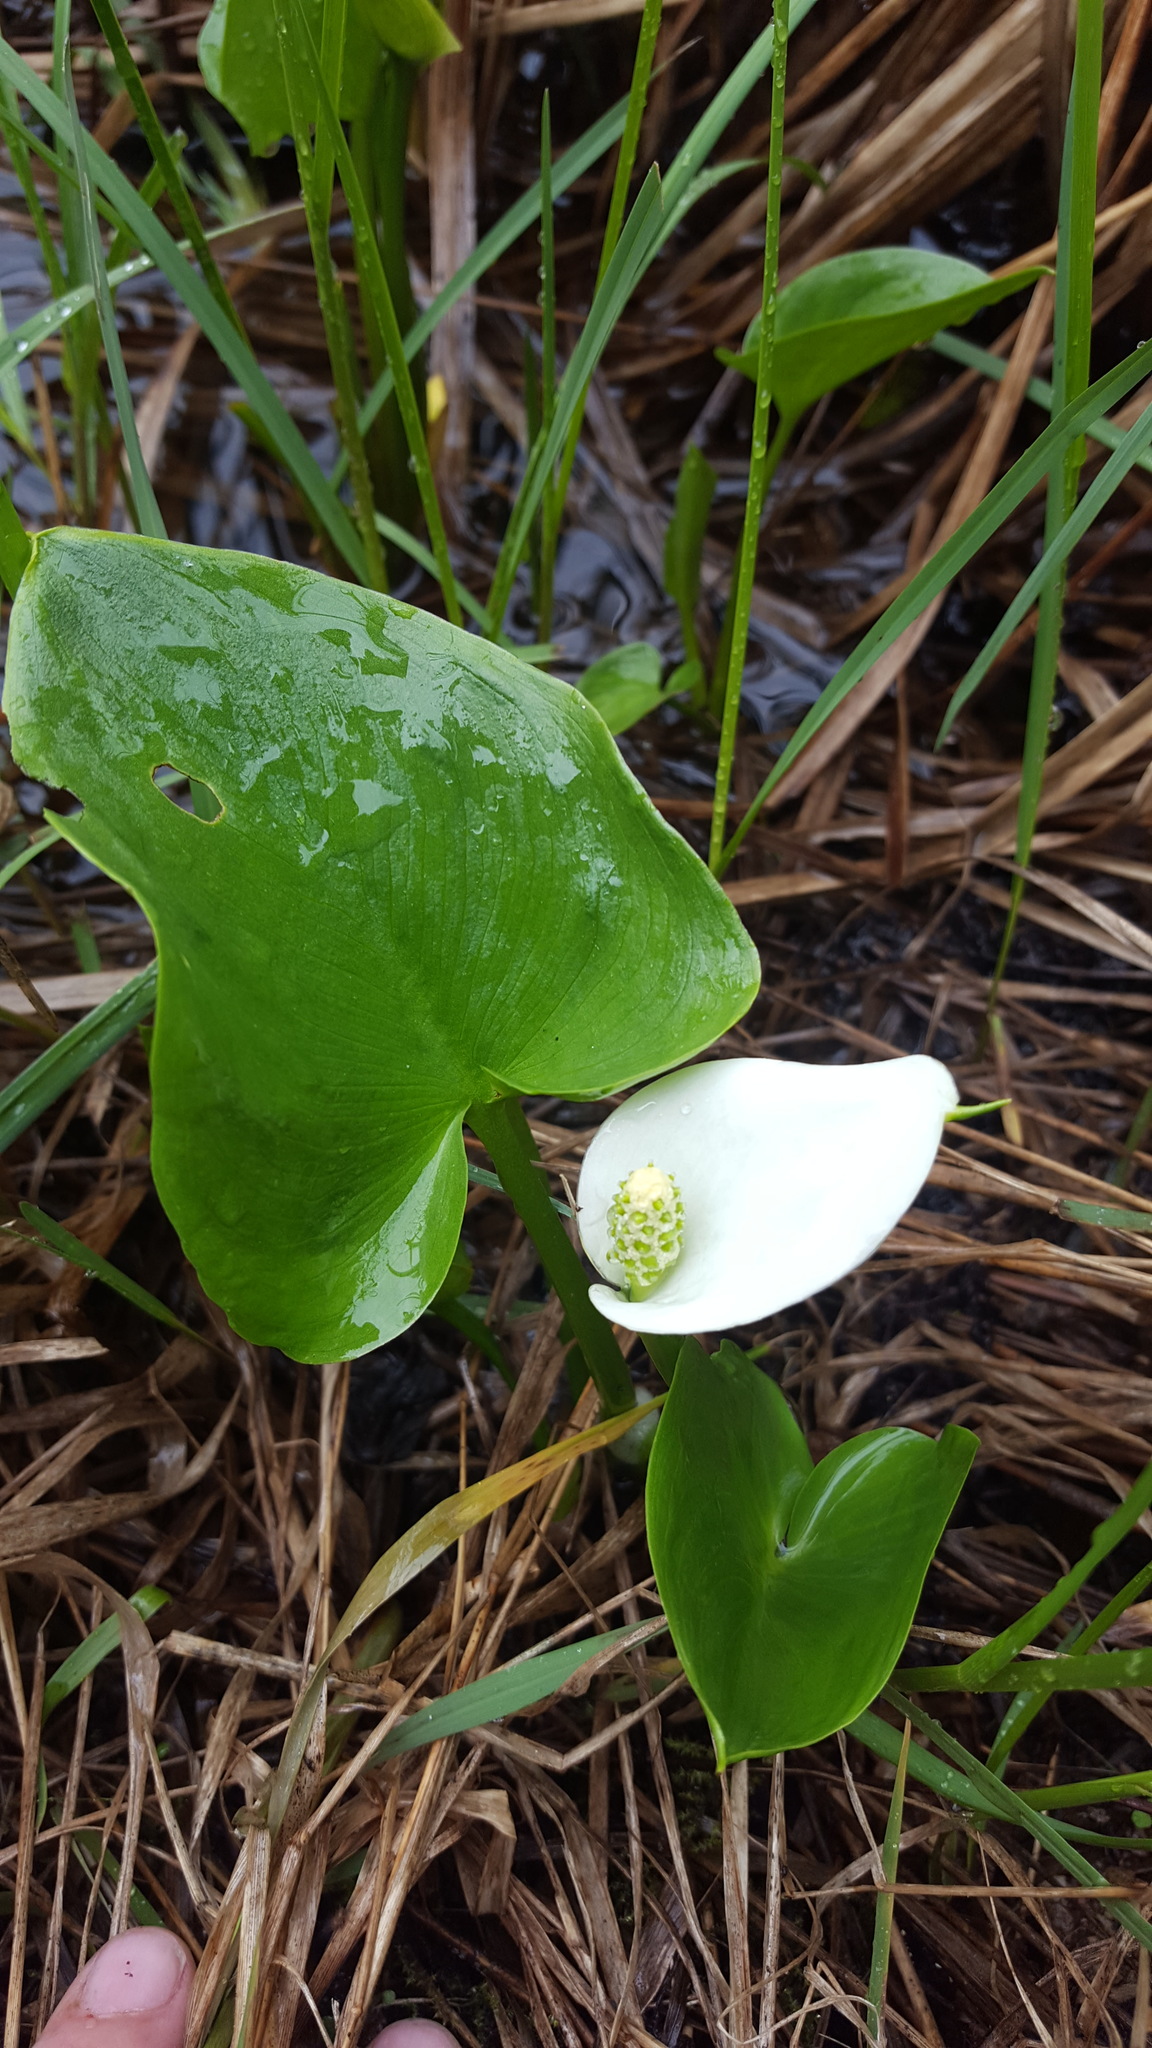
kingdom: Plantae
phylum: Tracheophyta
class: Liliopsida
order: Alismatales
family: Araceae
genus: Calla
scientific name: Calla palustris
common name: Bog arum
